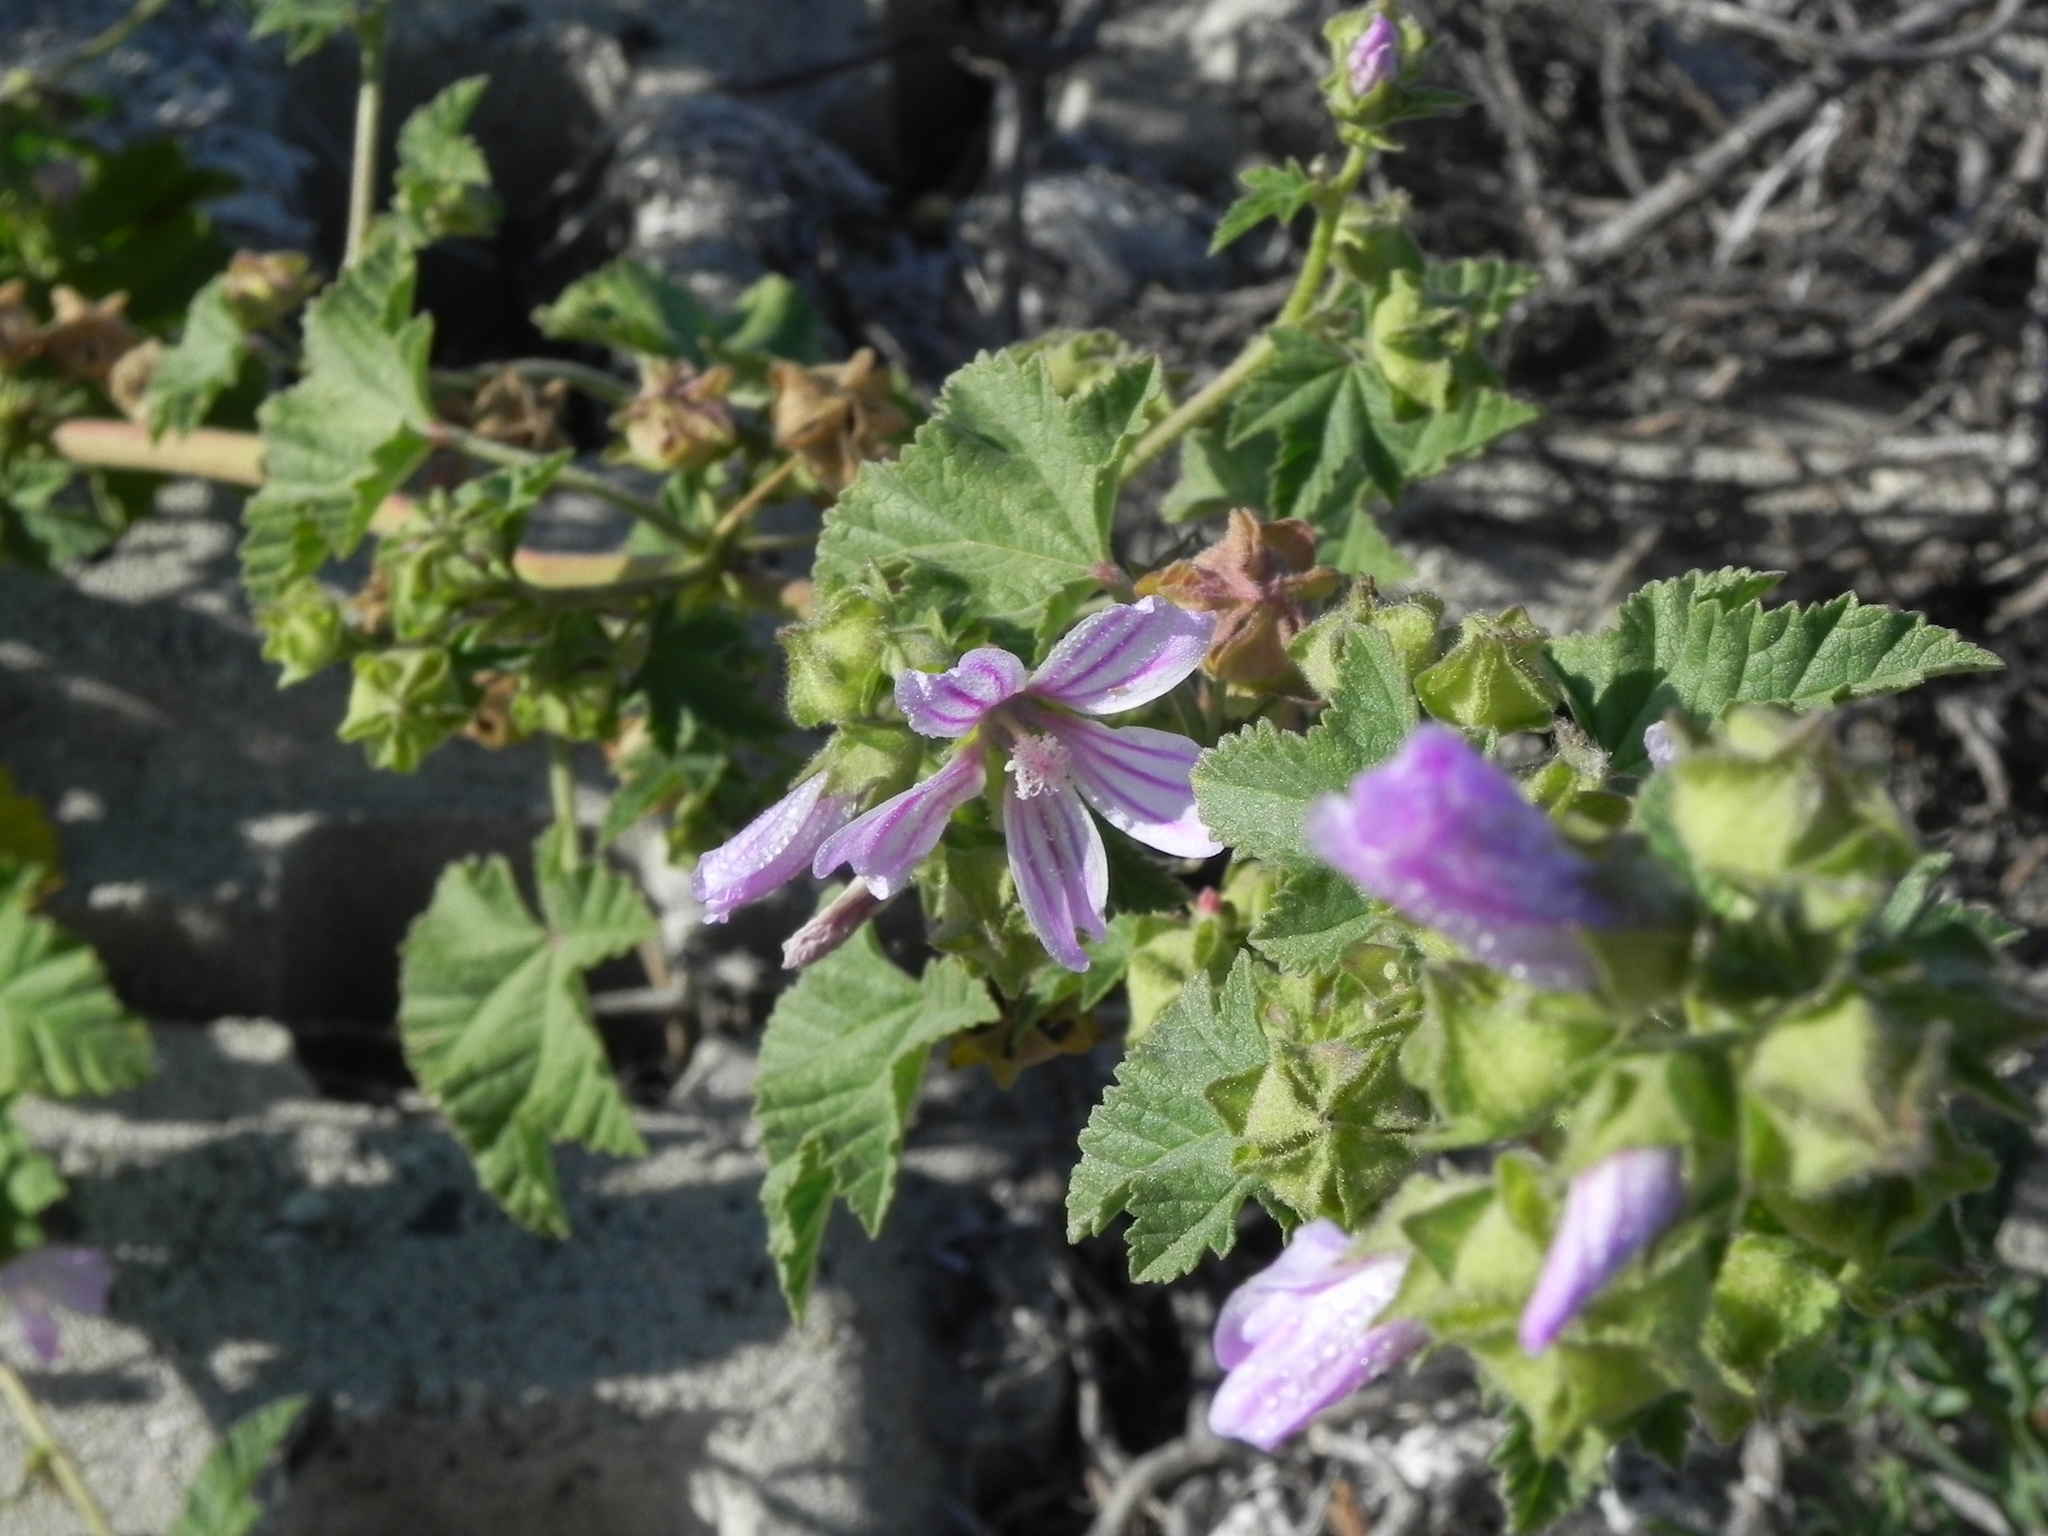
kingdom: Plantae
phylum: Tracheophyta
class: Magnoliopsida
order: Malvales
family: Malvaceae
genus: Malva
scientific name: Malva multiflora
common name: Cheeseweed
